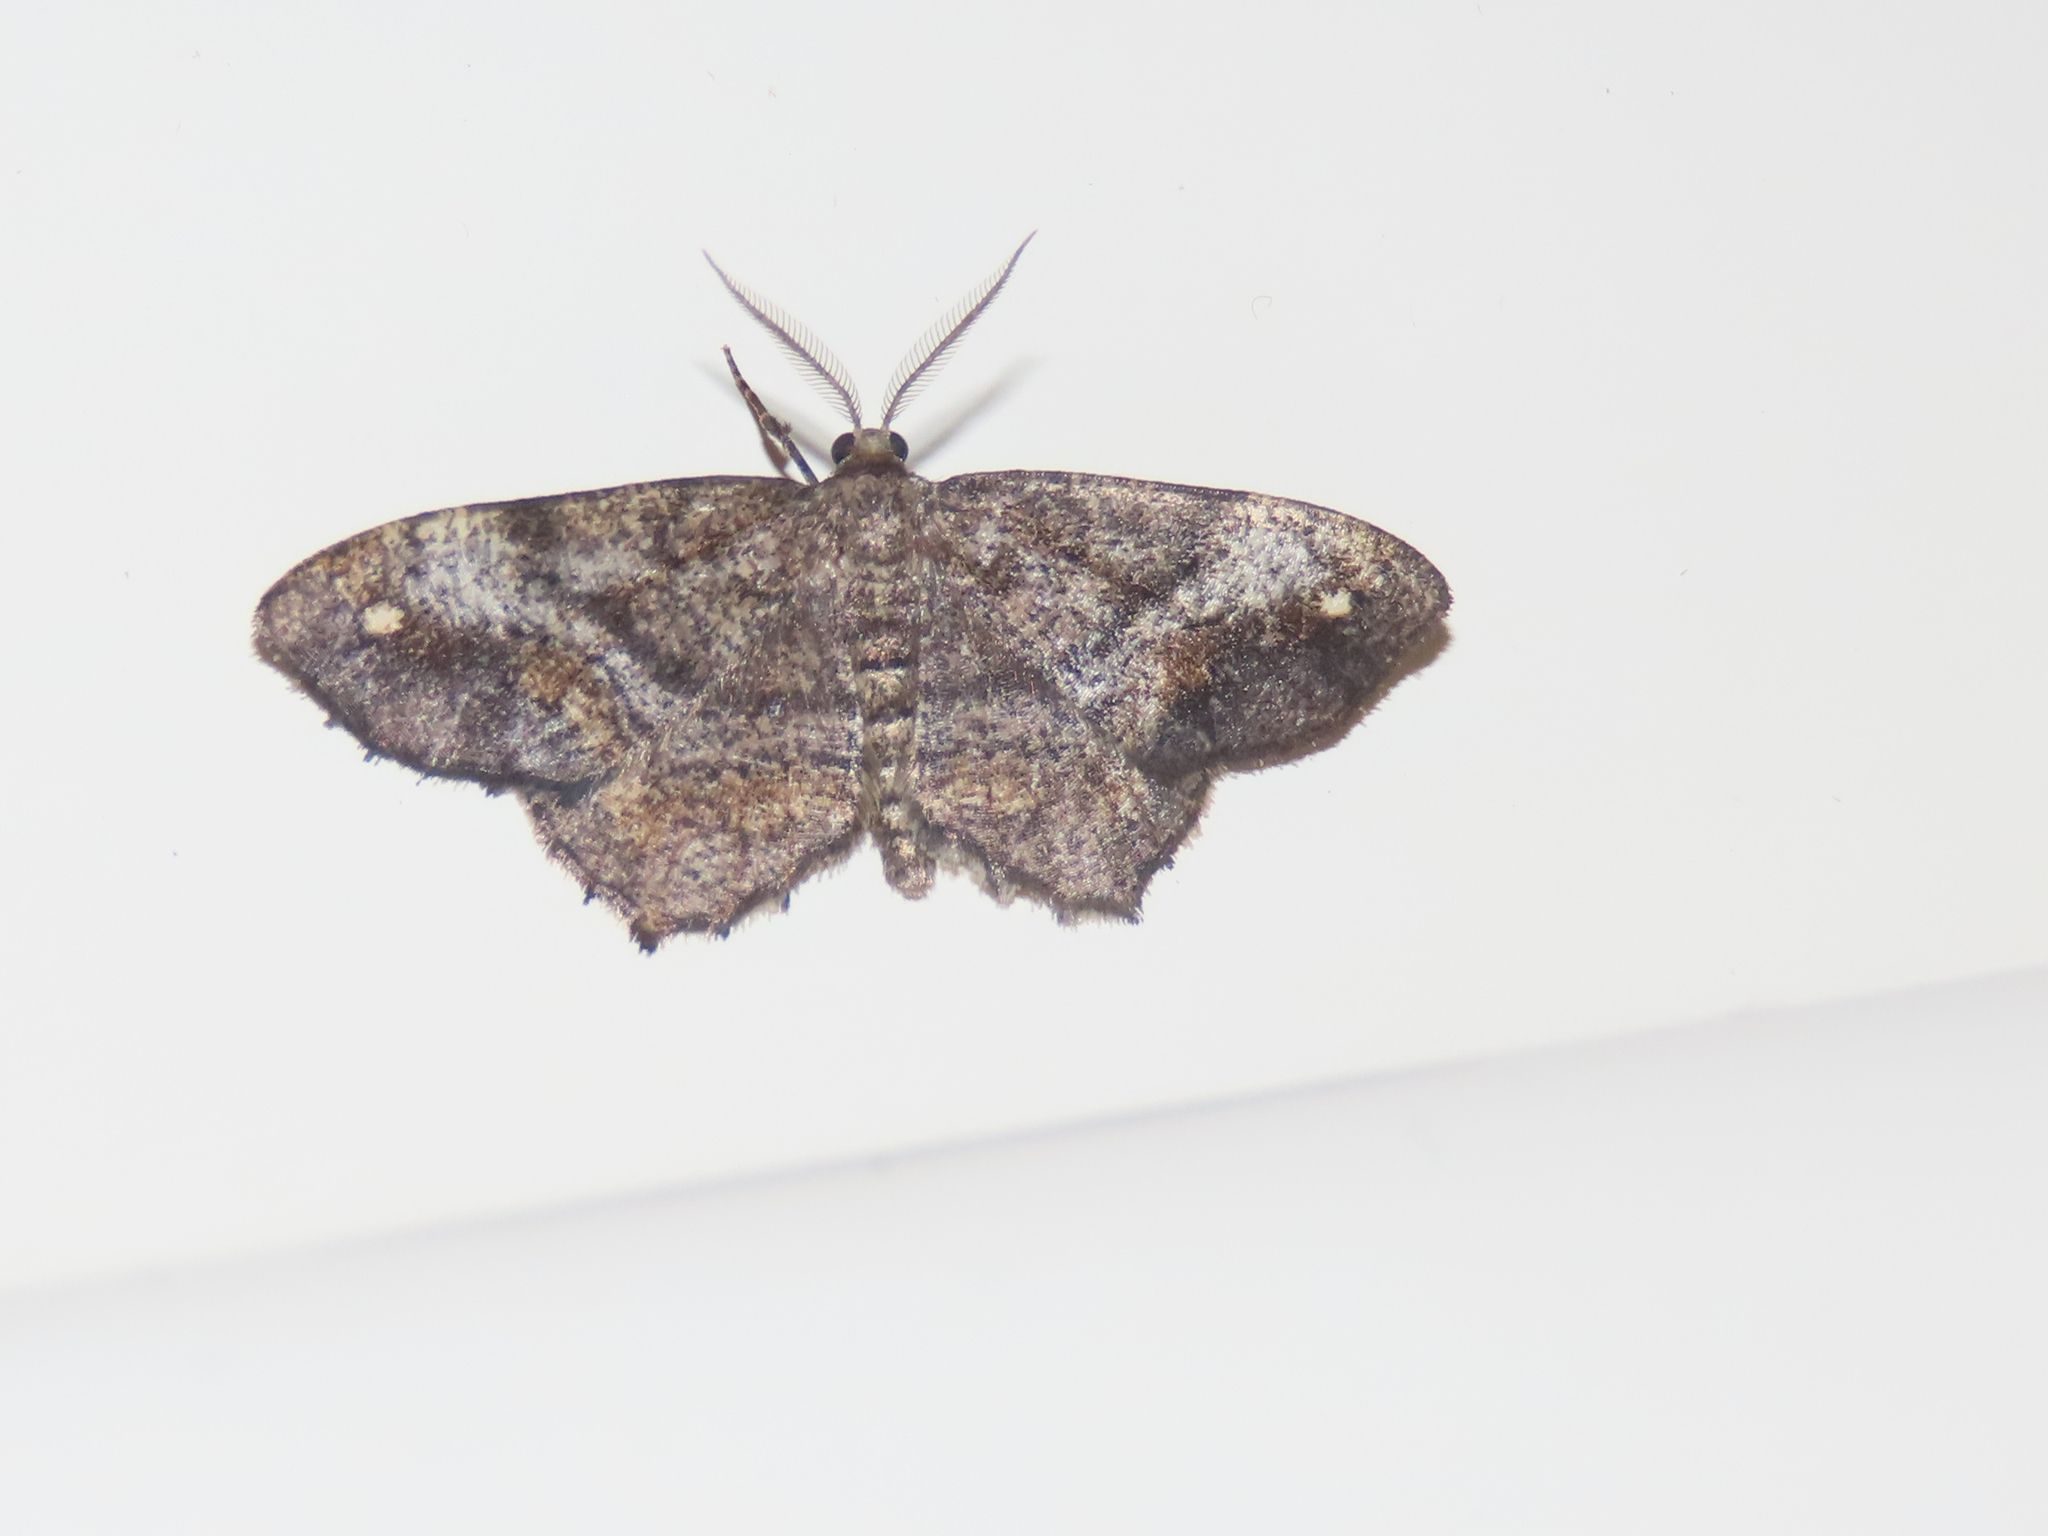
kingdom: Animalia
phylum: Arthropoda
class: Insecta
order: Lepidoptera
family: Geometridae
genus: Hypagyrtis
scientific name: Hypagyrtis unipunctata
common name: One-spotted variant
